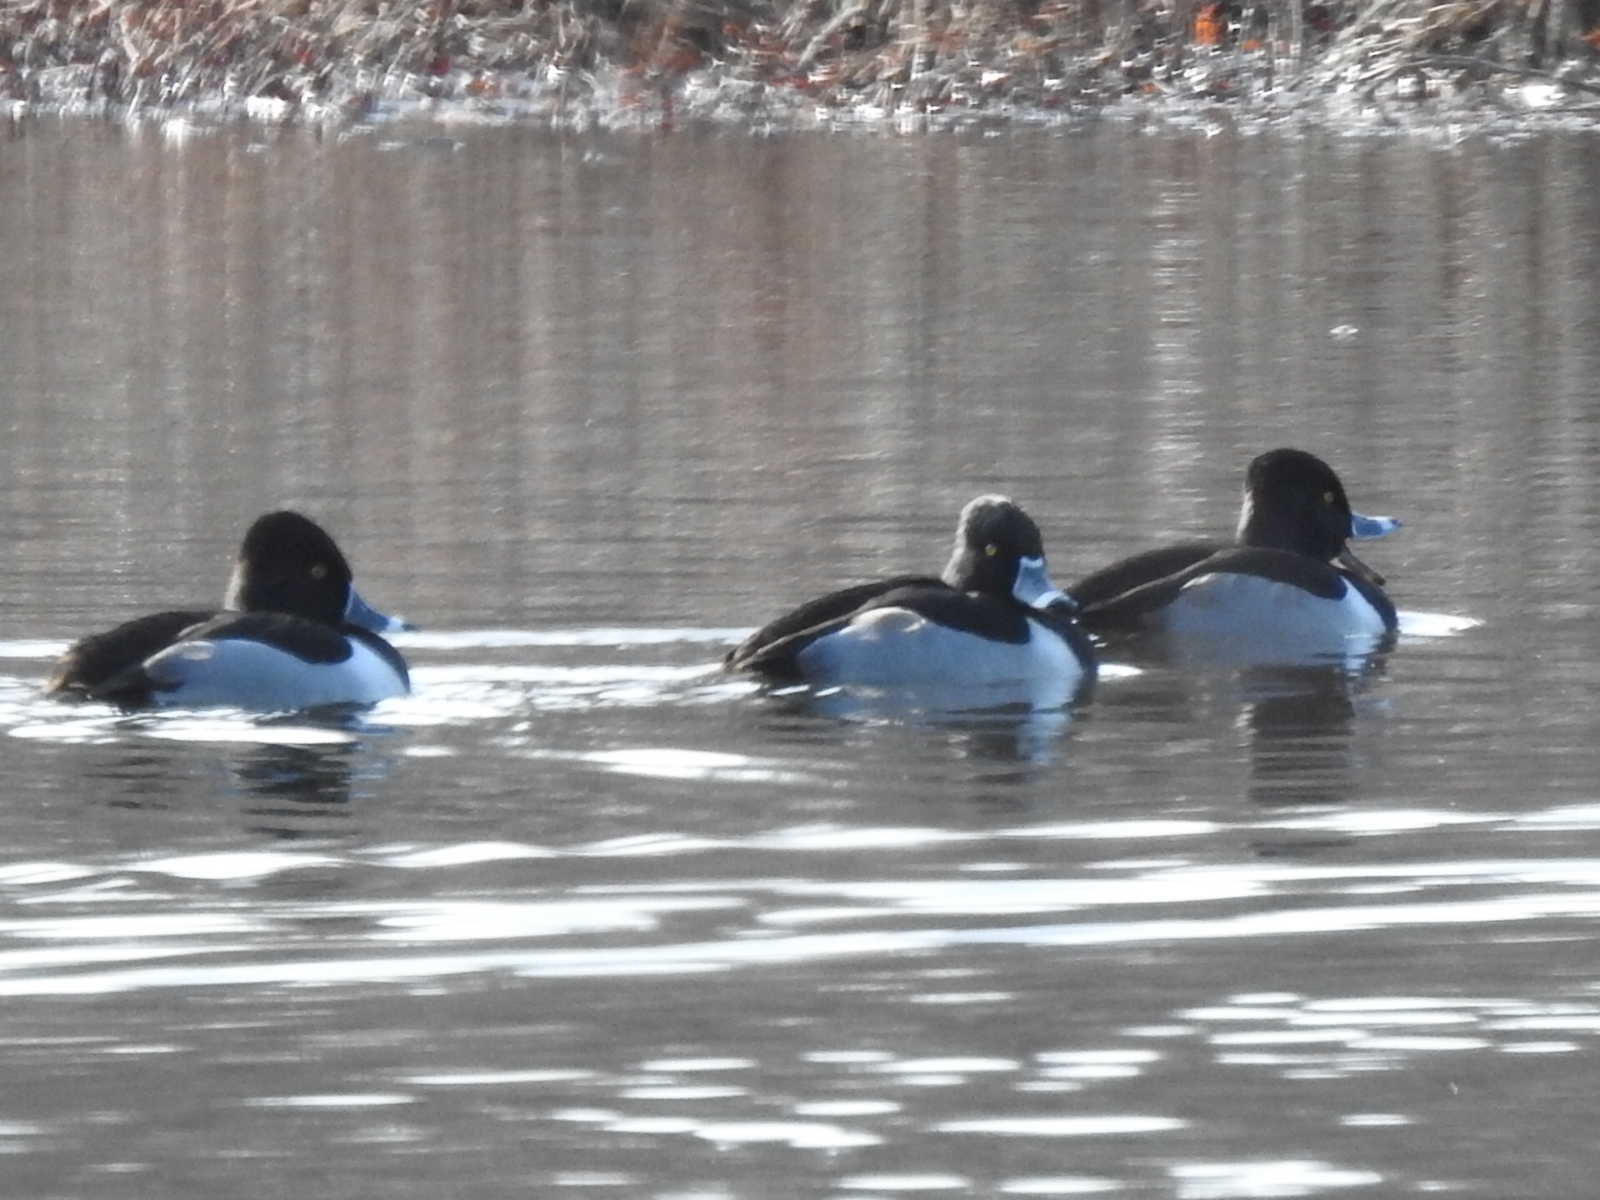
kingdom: Animalia
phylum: Chordata
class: Aves
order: Anseriformes
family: Anatidae
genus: Aythya
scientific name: Aythya collaris
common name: Ring-necked duck
